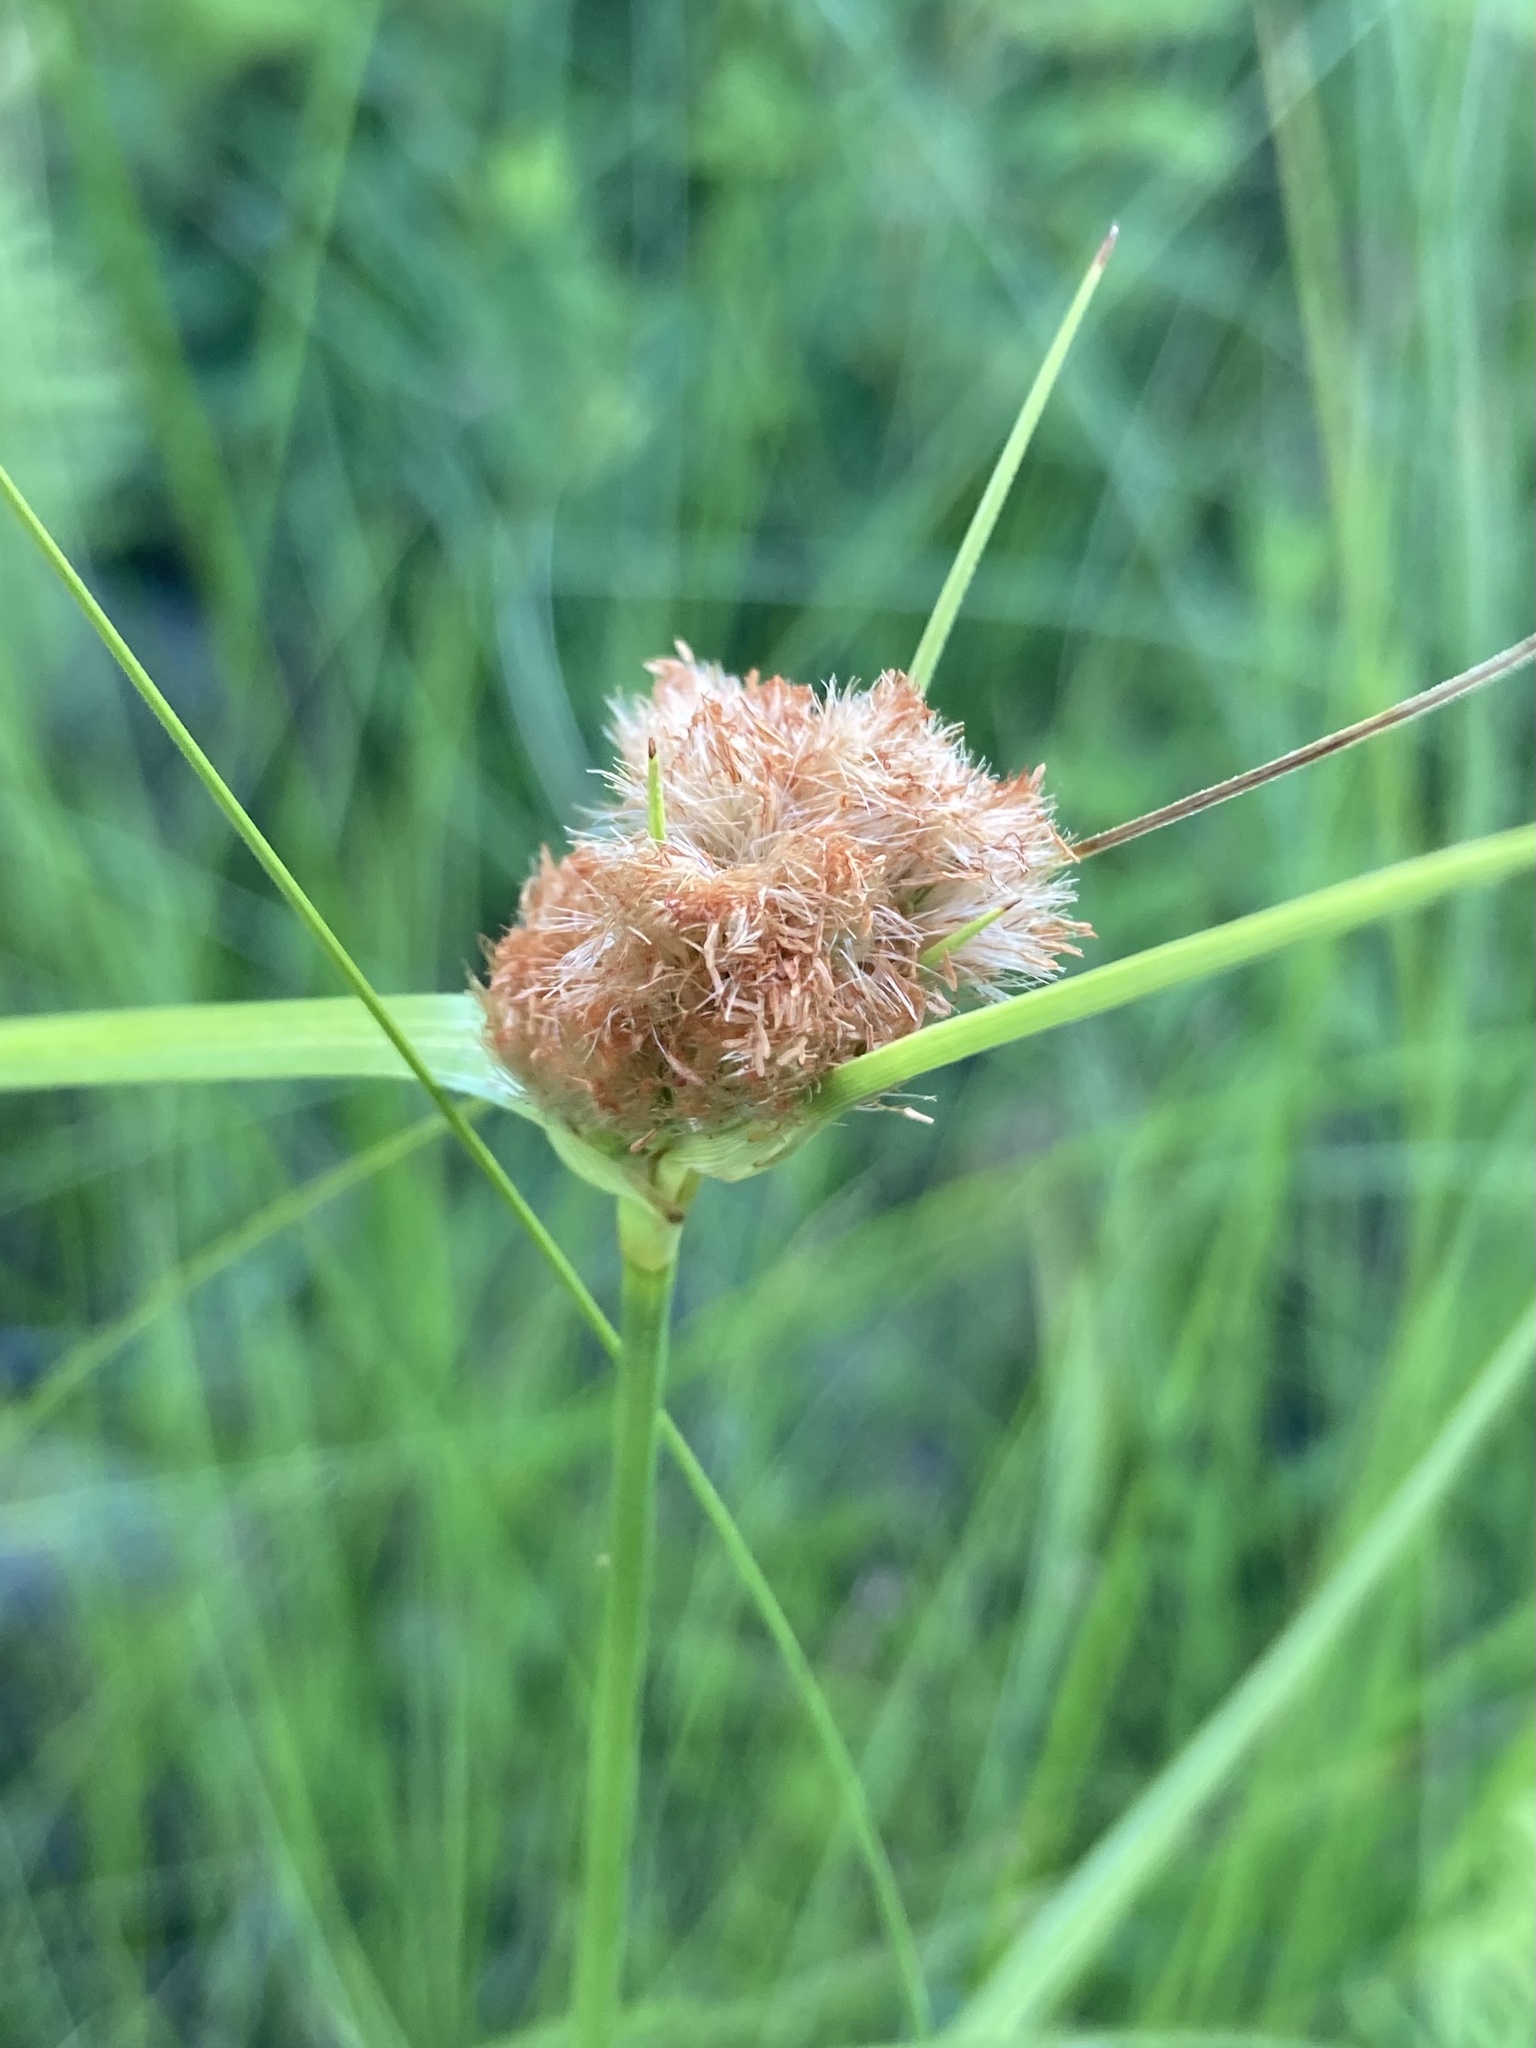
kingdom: Plantae
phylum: Tracheophyta
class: Liliopsida
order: Poales
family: Cyperaceae
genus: Eriophorum
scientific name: Eriophorum virginicum
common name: Tawny cottongrass
